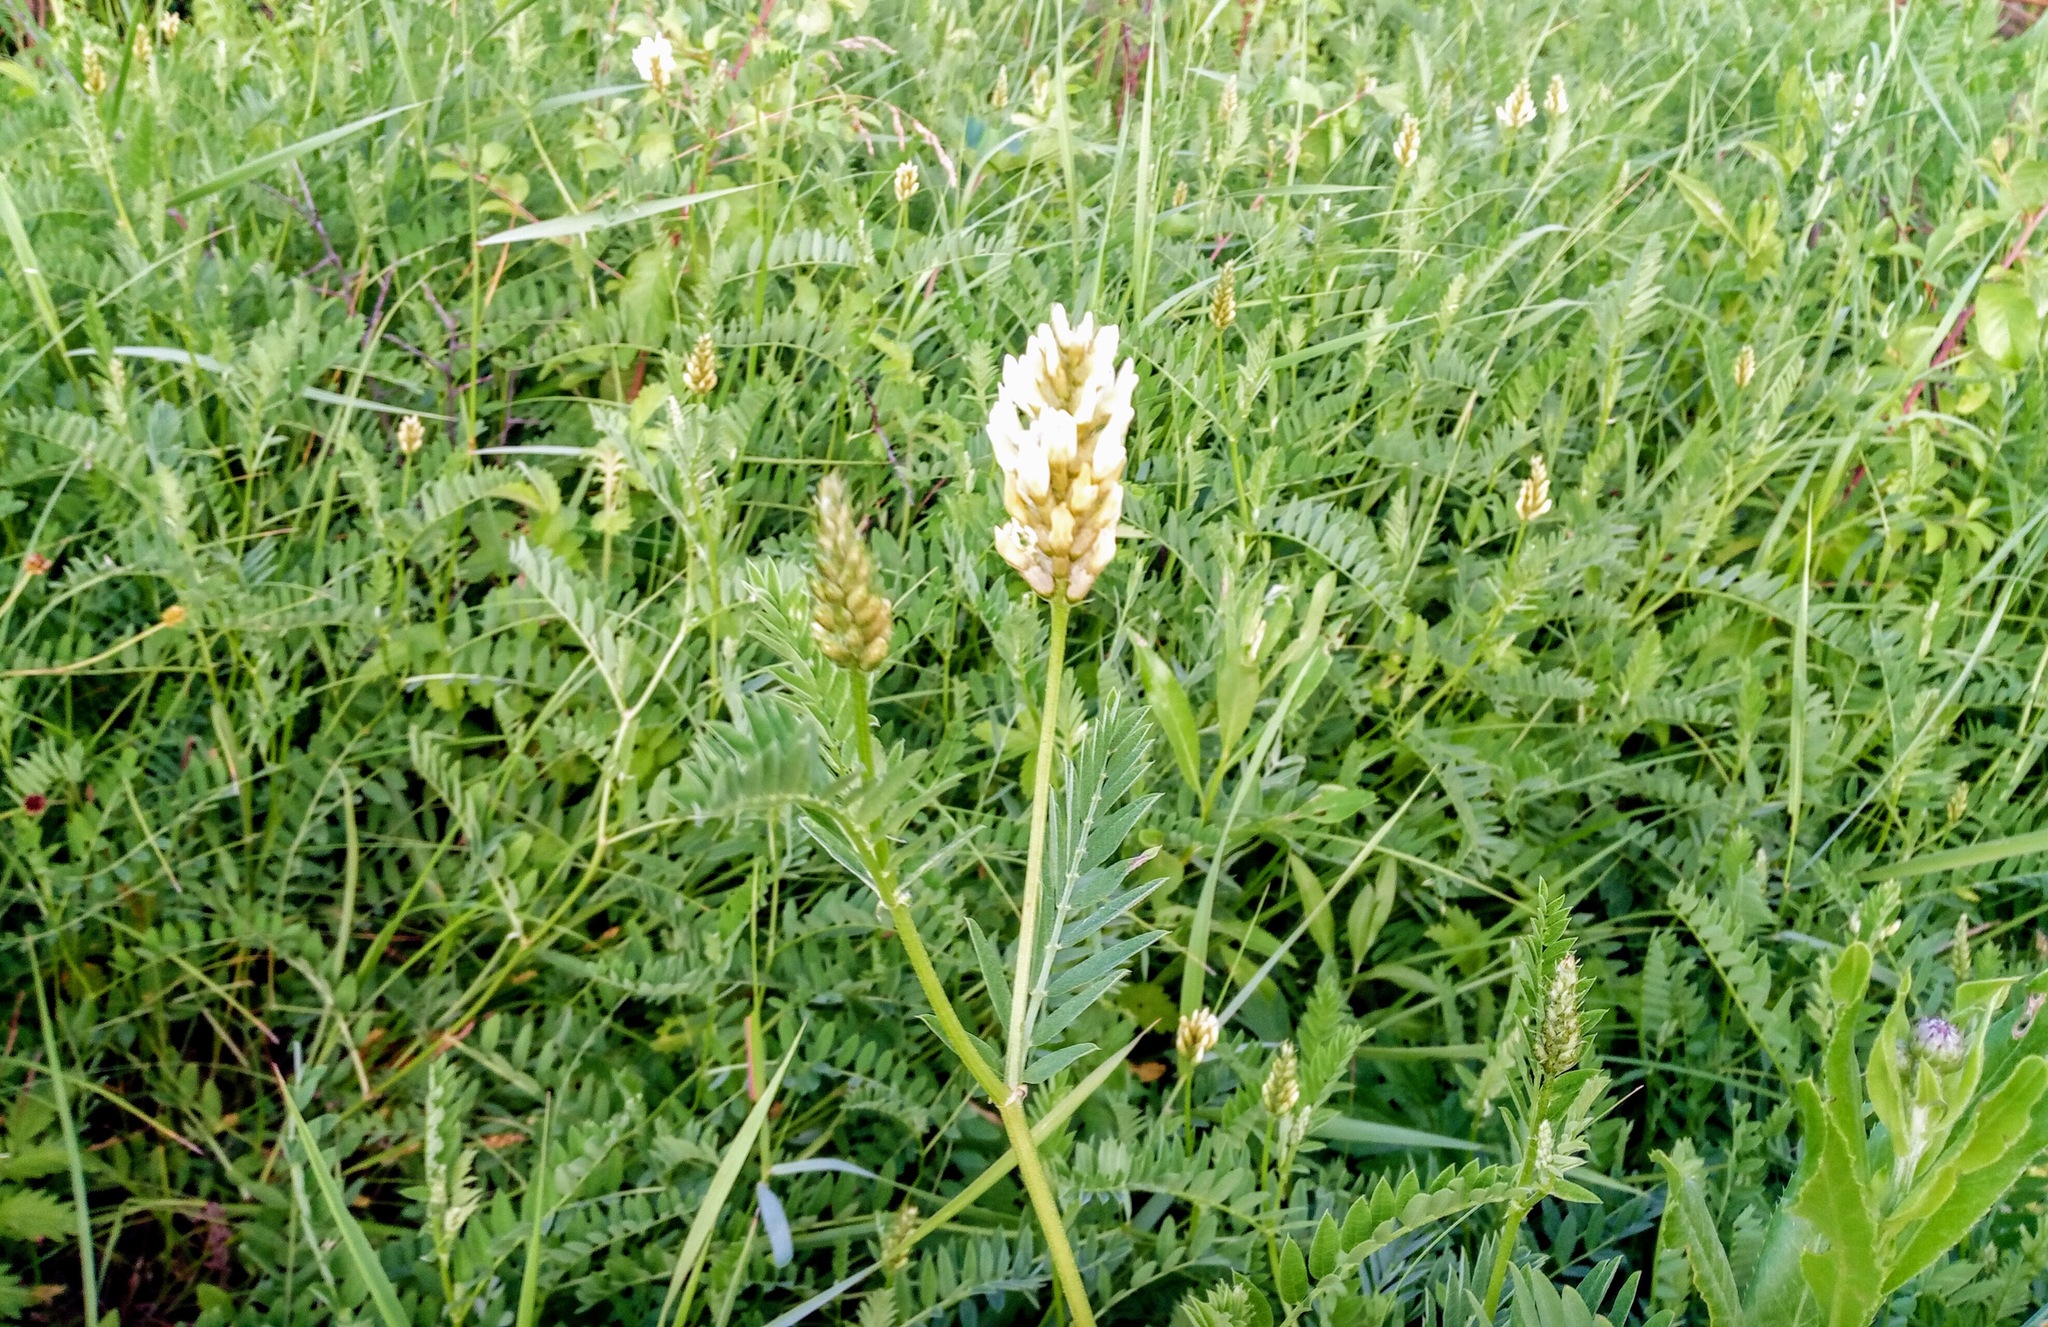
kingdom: Plantae
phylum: Tracheophyta
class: Magnoliopsida
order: Fabales
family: Fabaceae
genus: Astragalus
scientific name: Astragalus cicer
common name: Chick-pea milk-vetch
